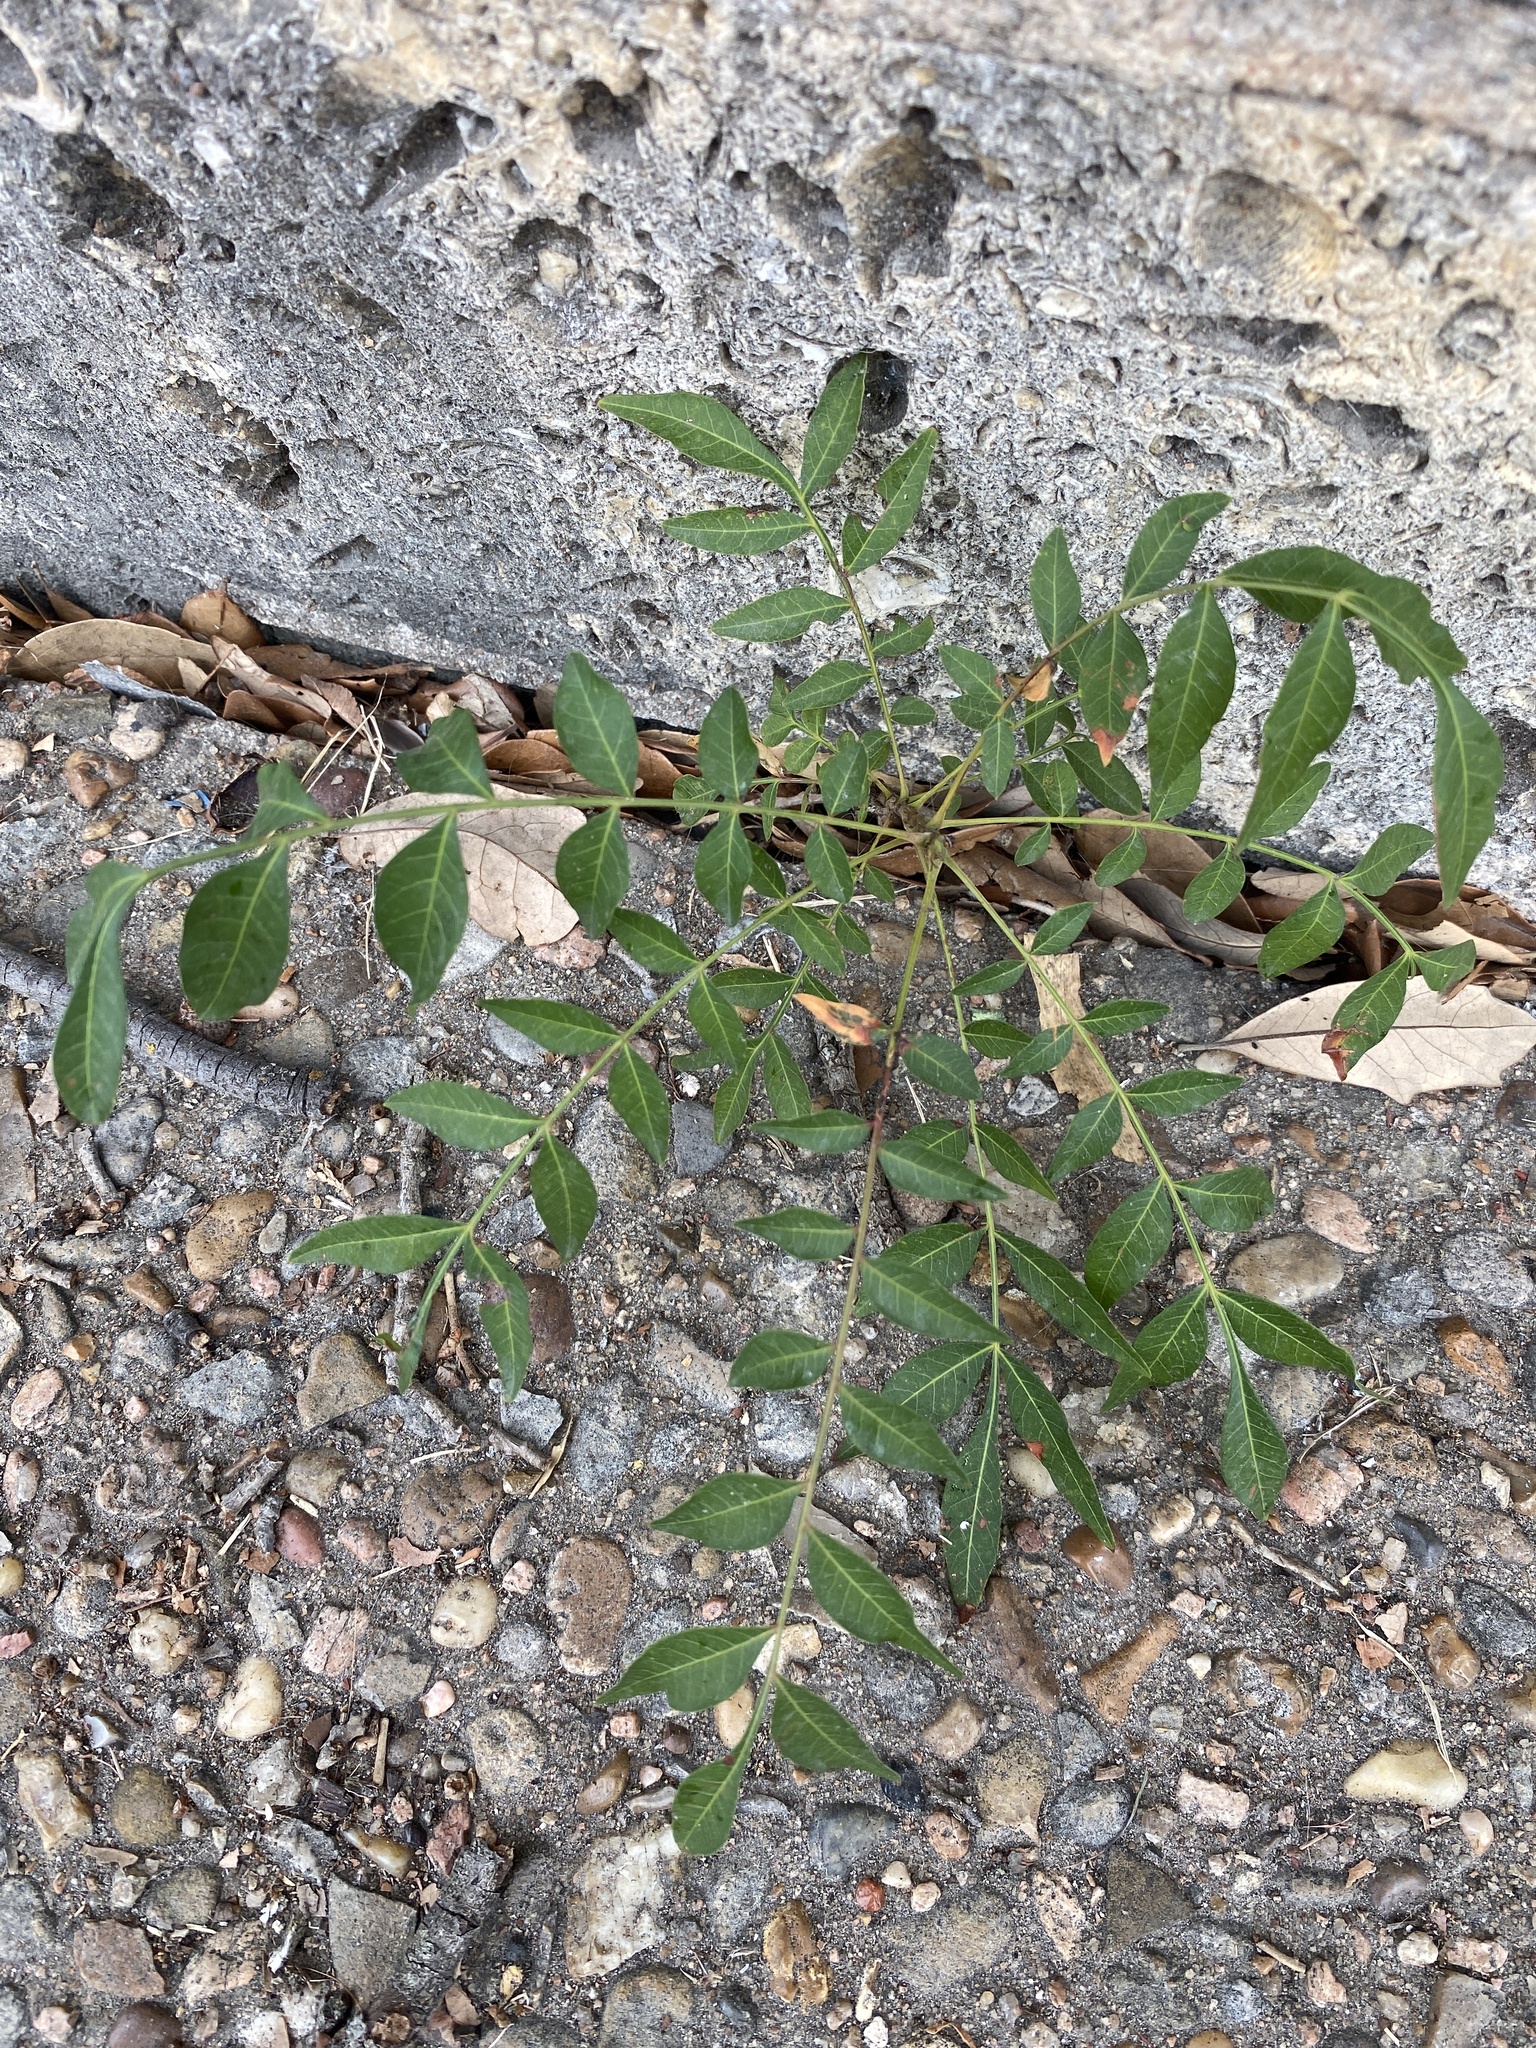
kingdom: Plantae
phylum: Tracheophyta
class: Magnoliopsida
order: Sapindales
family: Anacardiaceae
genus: Pistacia
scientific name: Pistacia chinensis
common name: Chinese pistache
